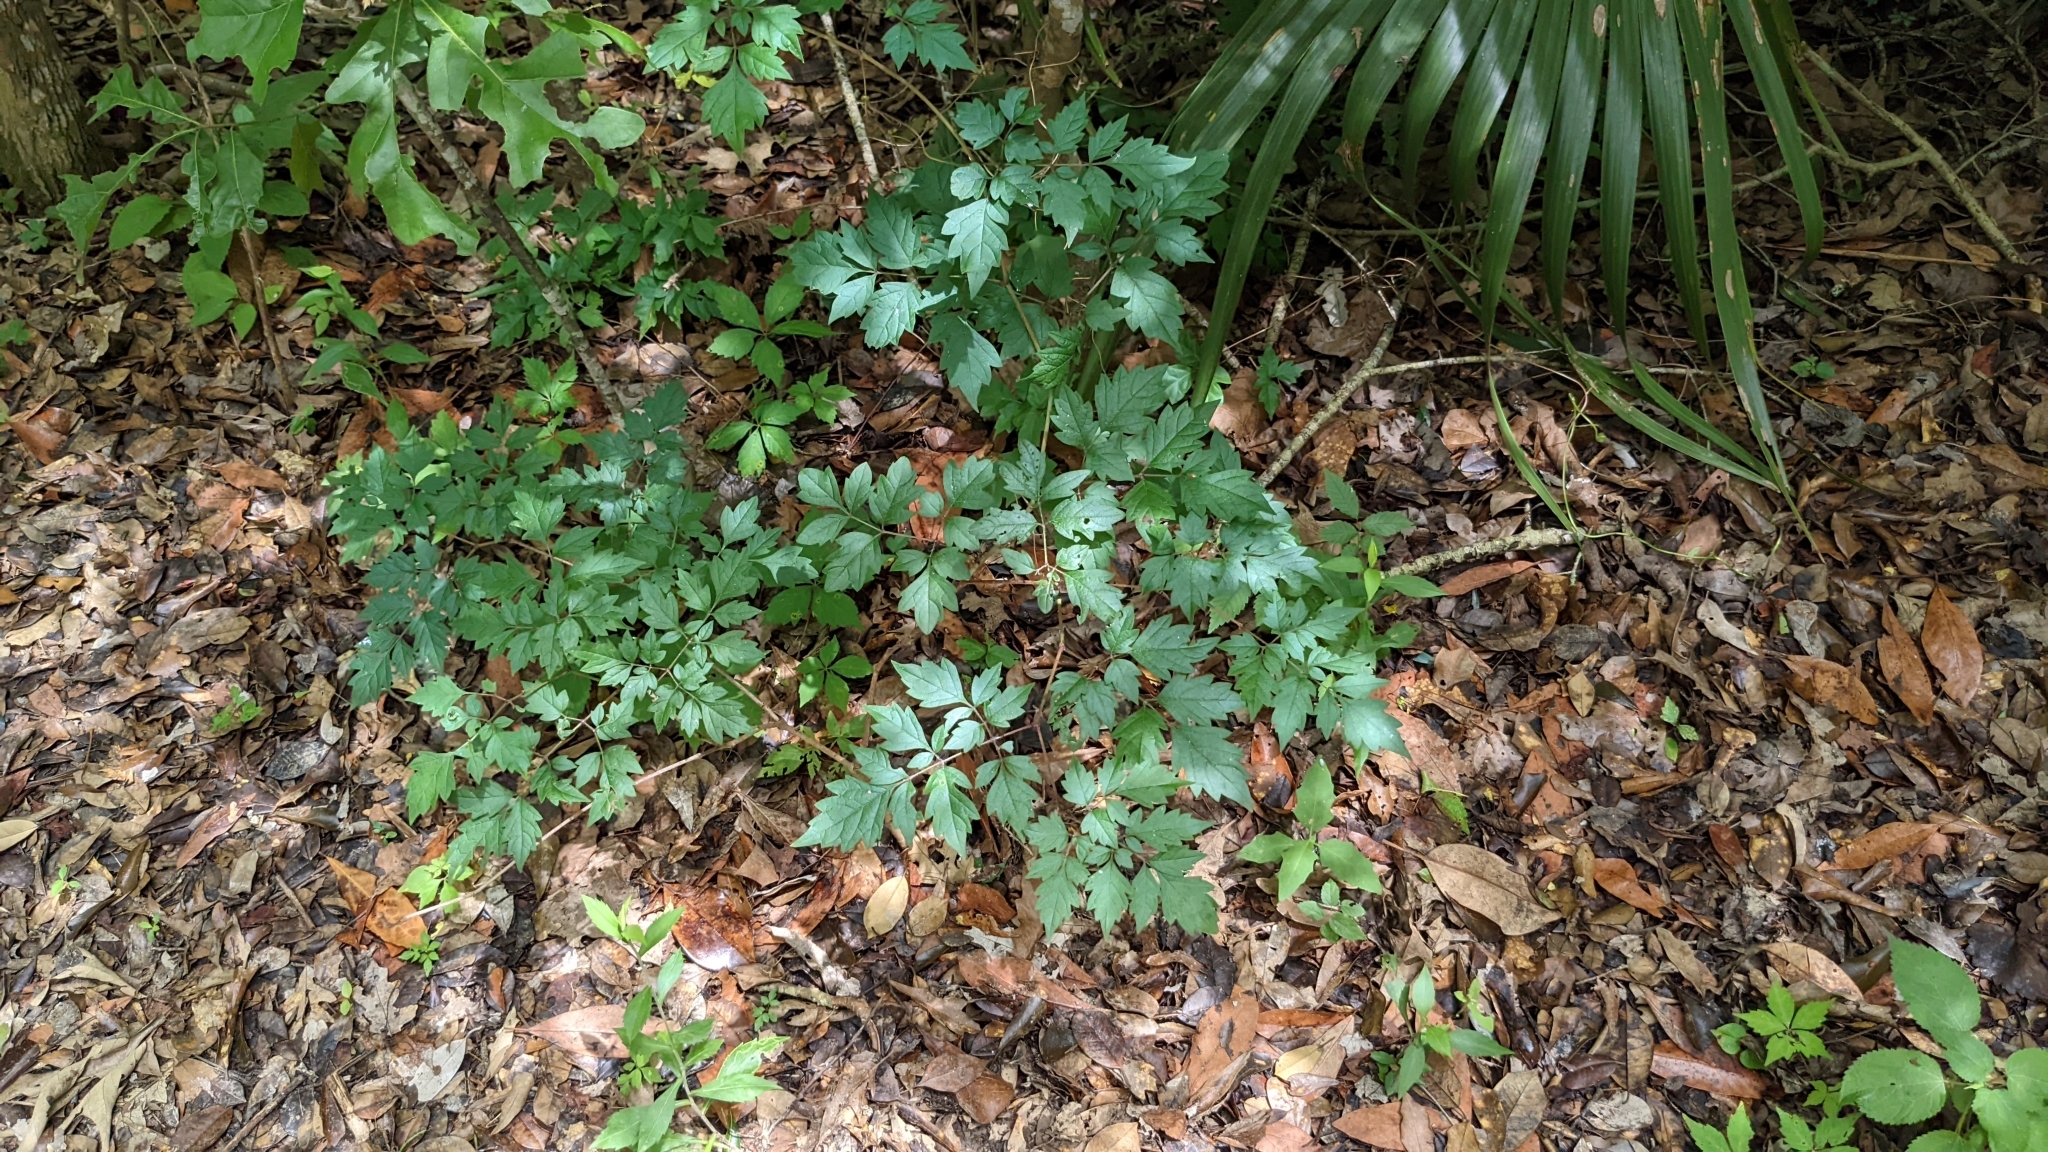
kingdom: Plantae
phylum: Tracheophyta
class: Magnoliopsida
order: Vitales
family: Vitaceae
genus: Nekemias
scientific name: Nekemias arborea
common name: Peppervine
